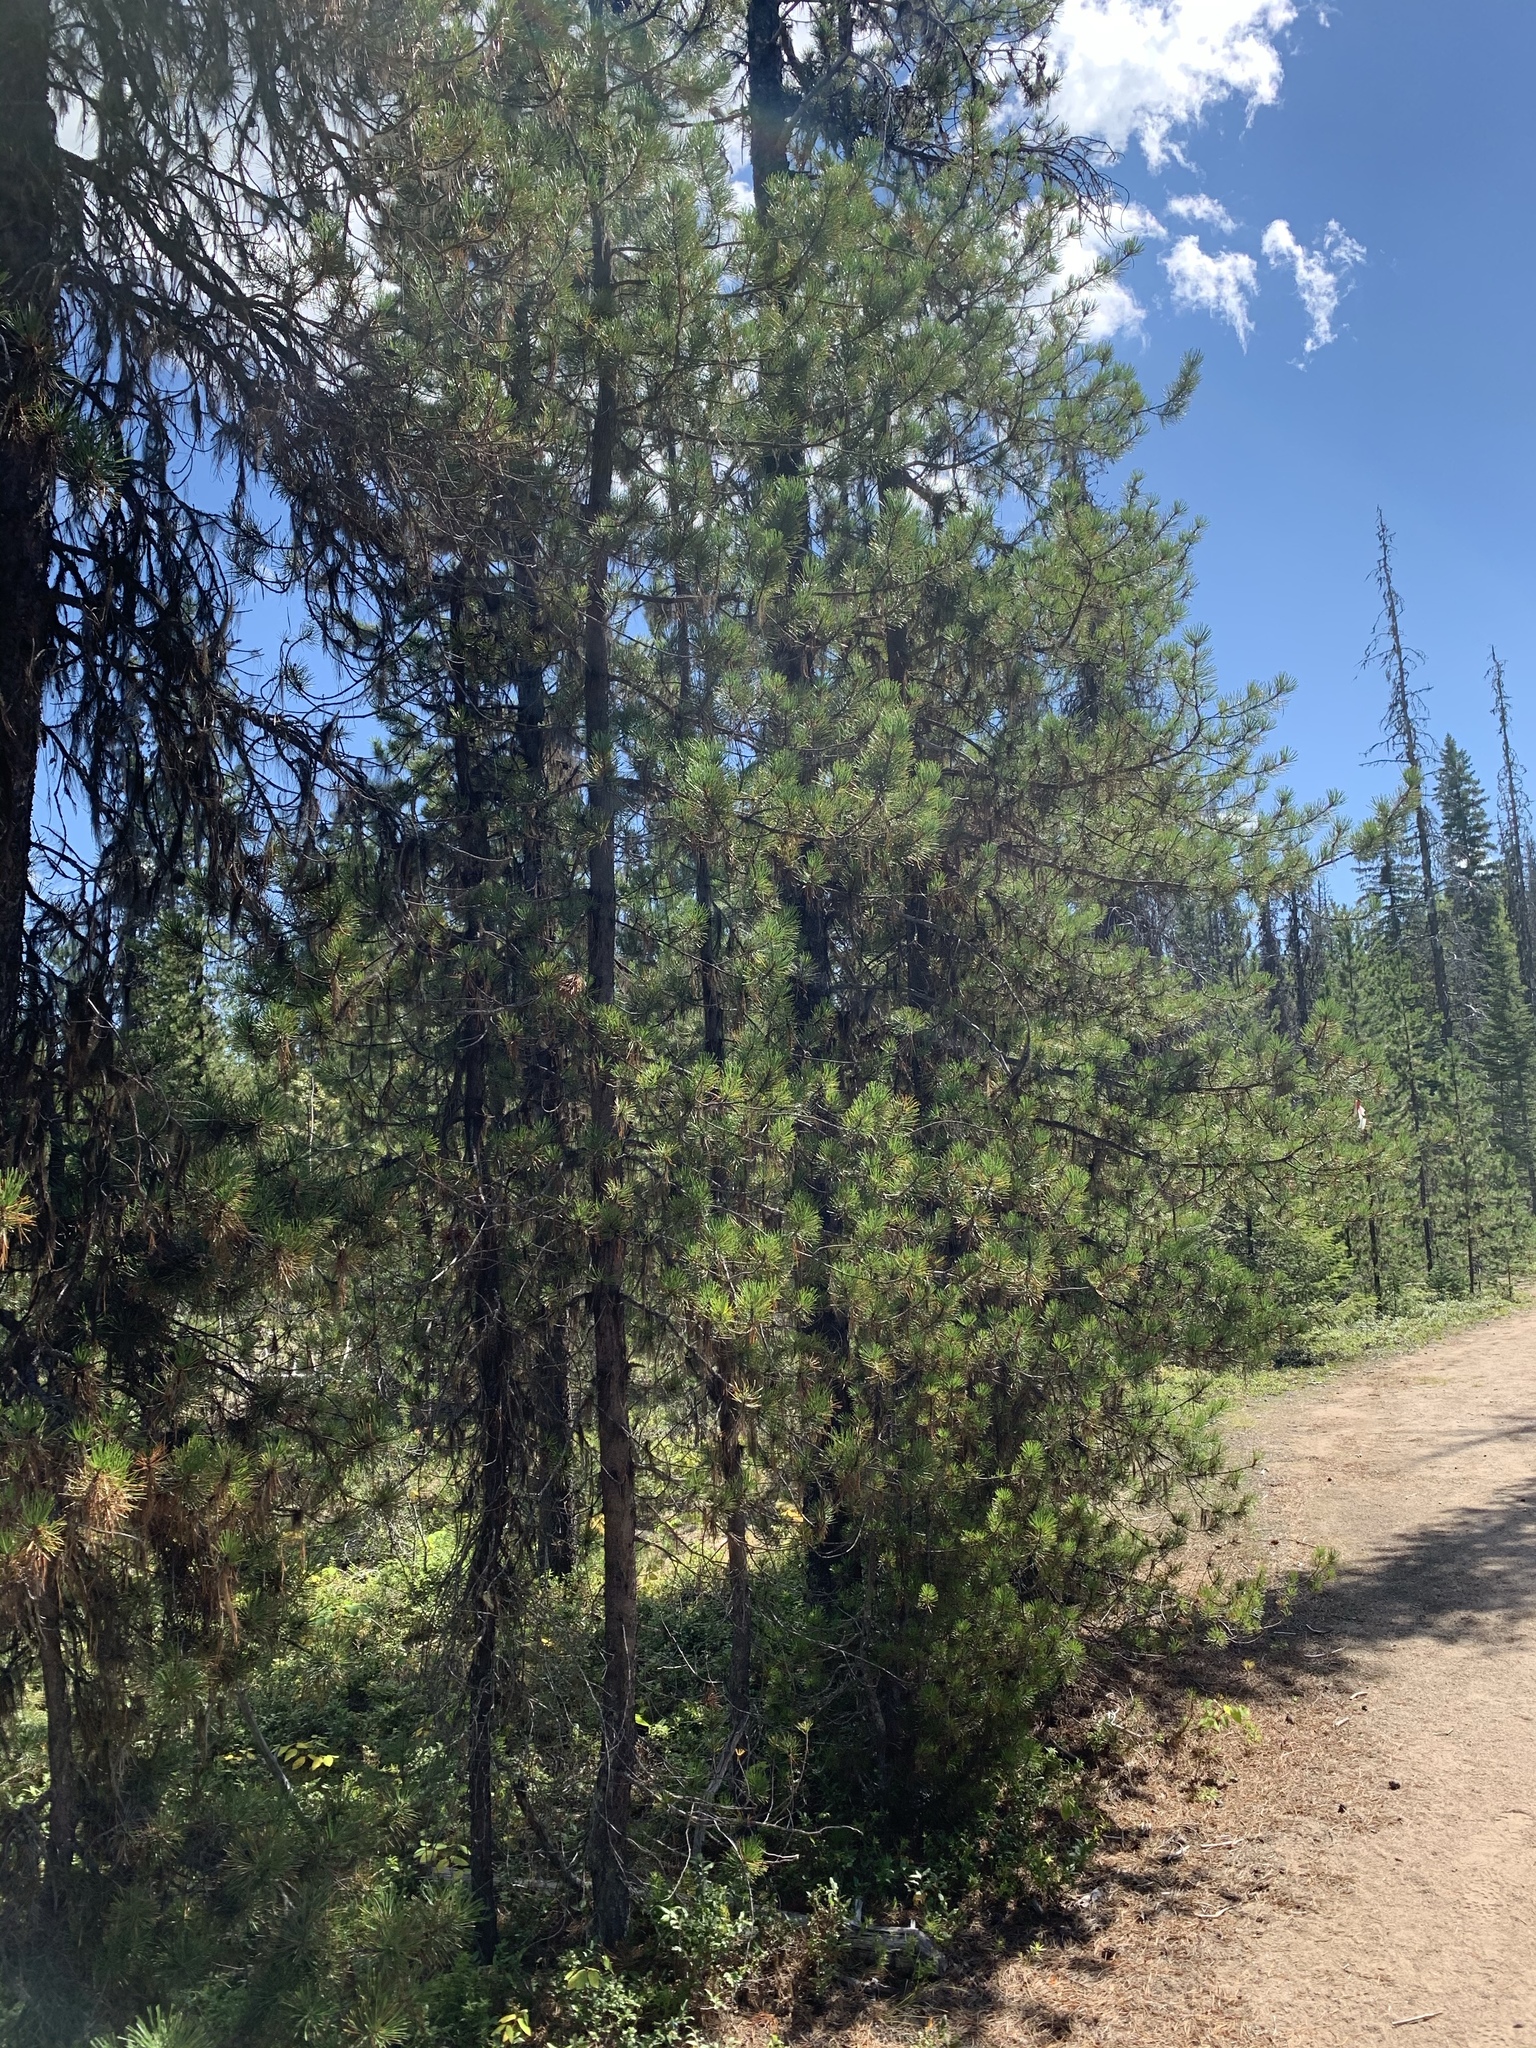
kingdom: Plantae
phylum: Tracheophyta
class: Pinopsida
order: Pinales
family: Pinaceae
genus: Pinus
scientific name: Pinus contorta
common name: Lodgepole pine
